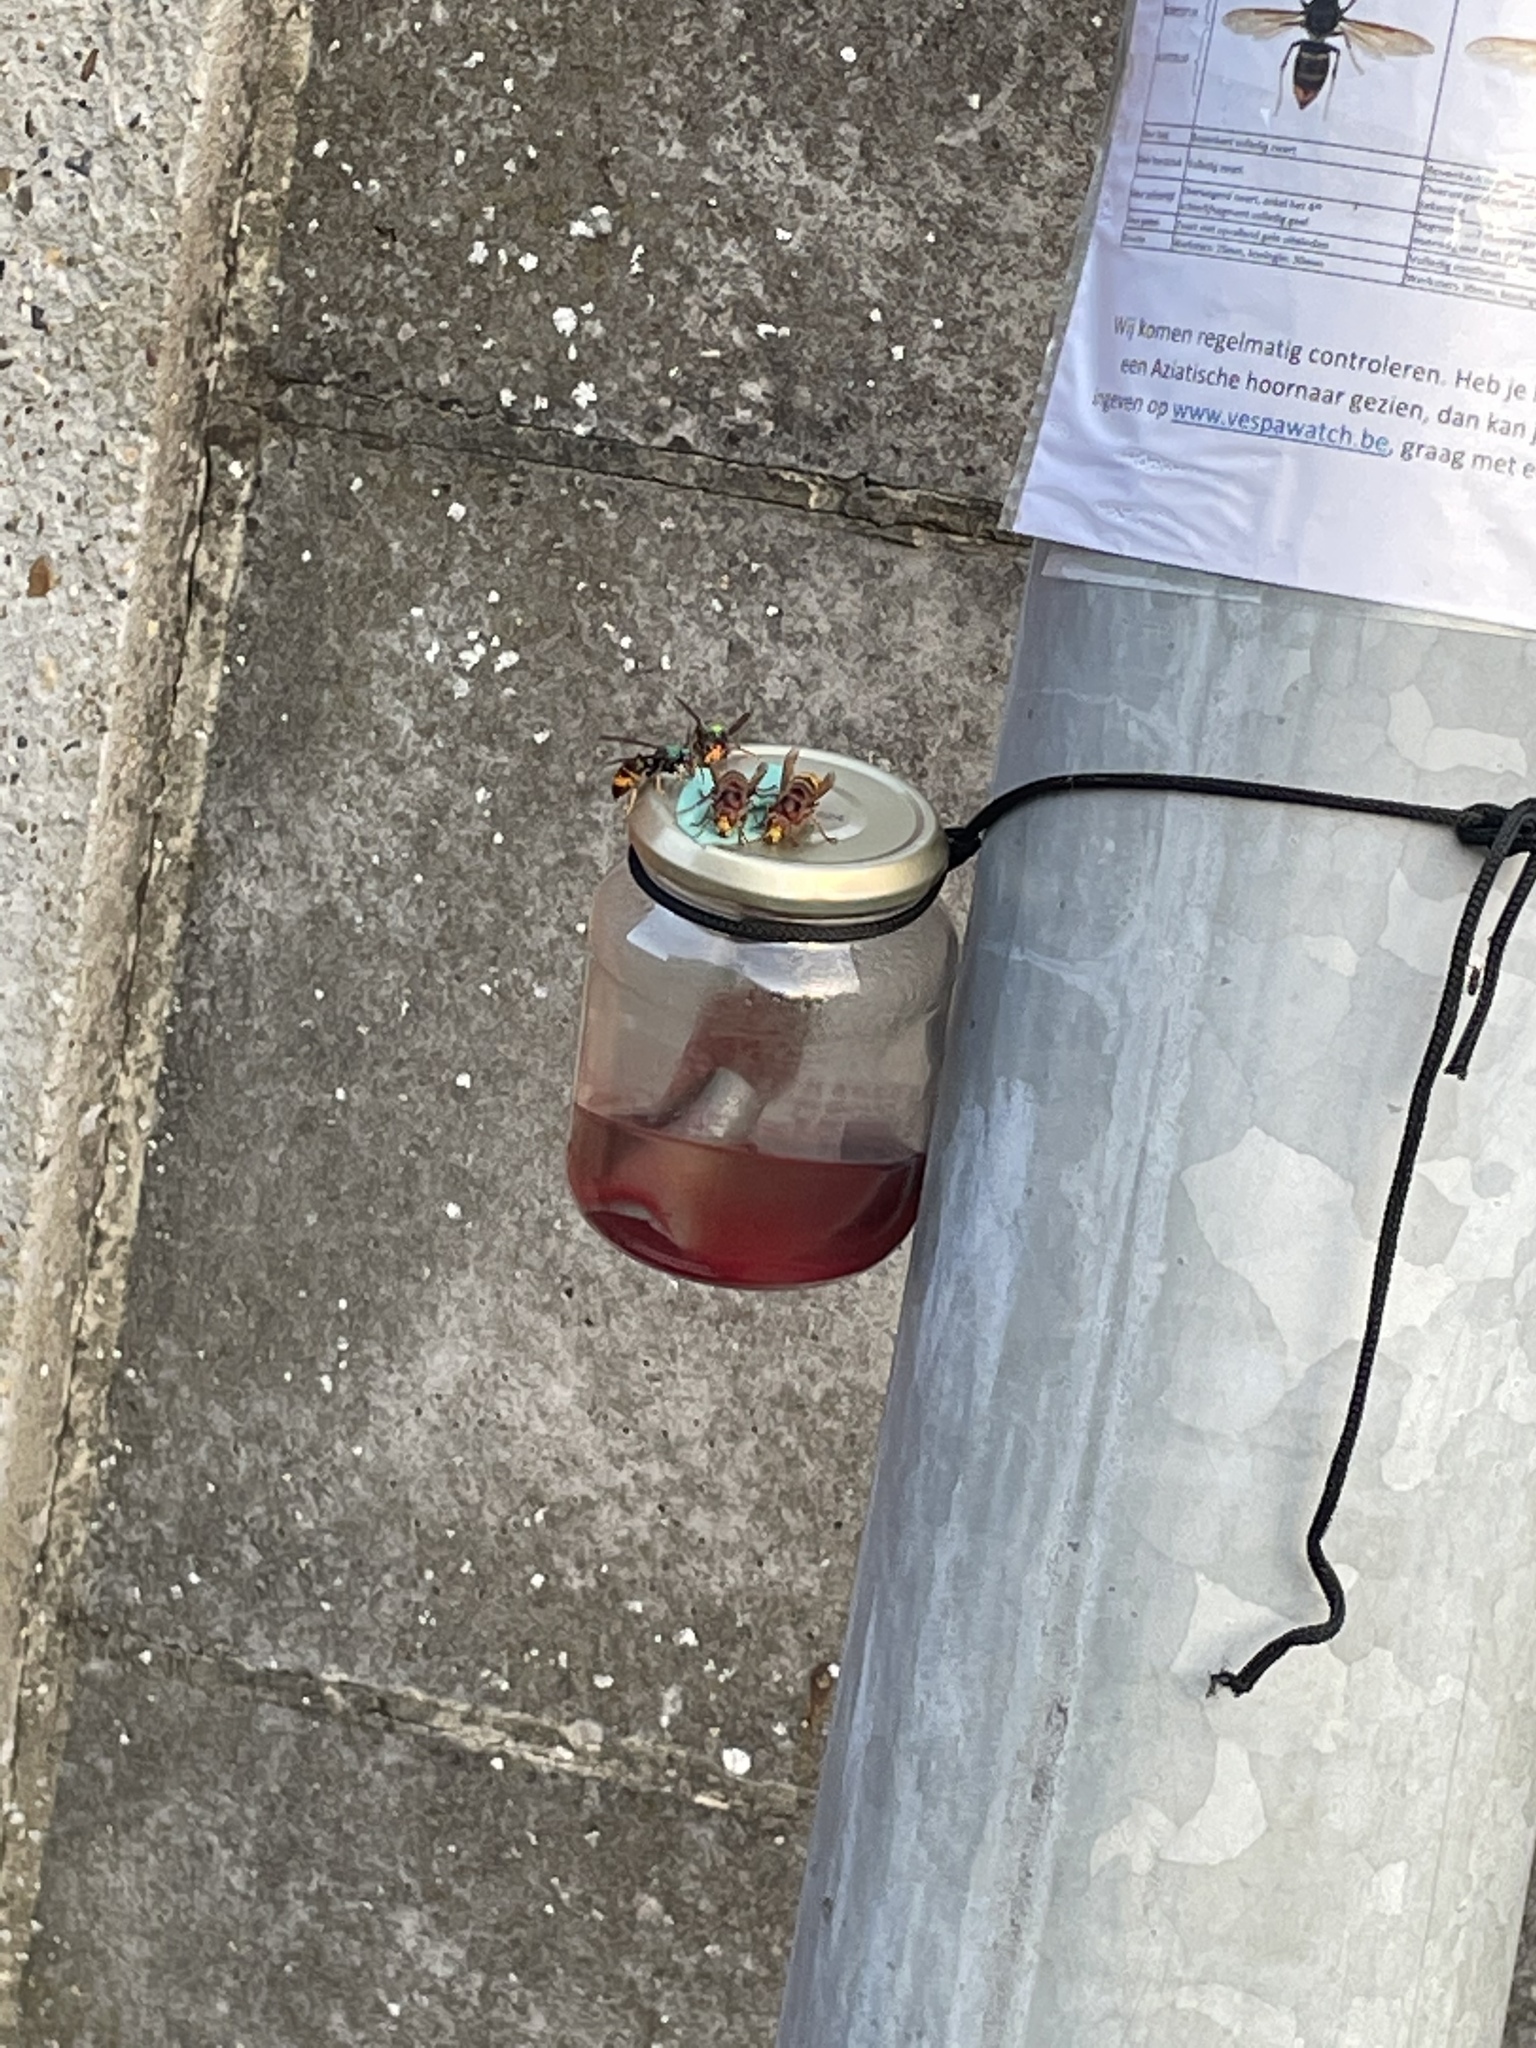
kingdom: Animalia
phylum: Arthropoda
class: Insecta
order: Hymenoptera
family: Vespidae
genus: Vespa
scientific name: Vespa velutina
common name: Asian hornet
